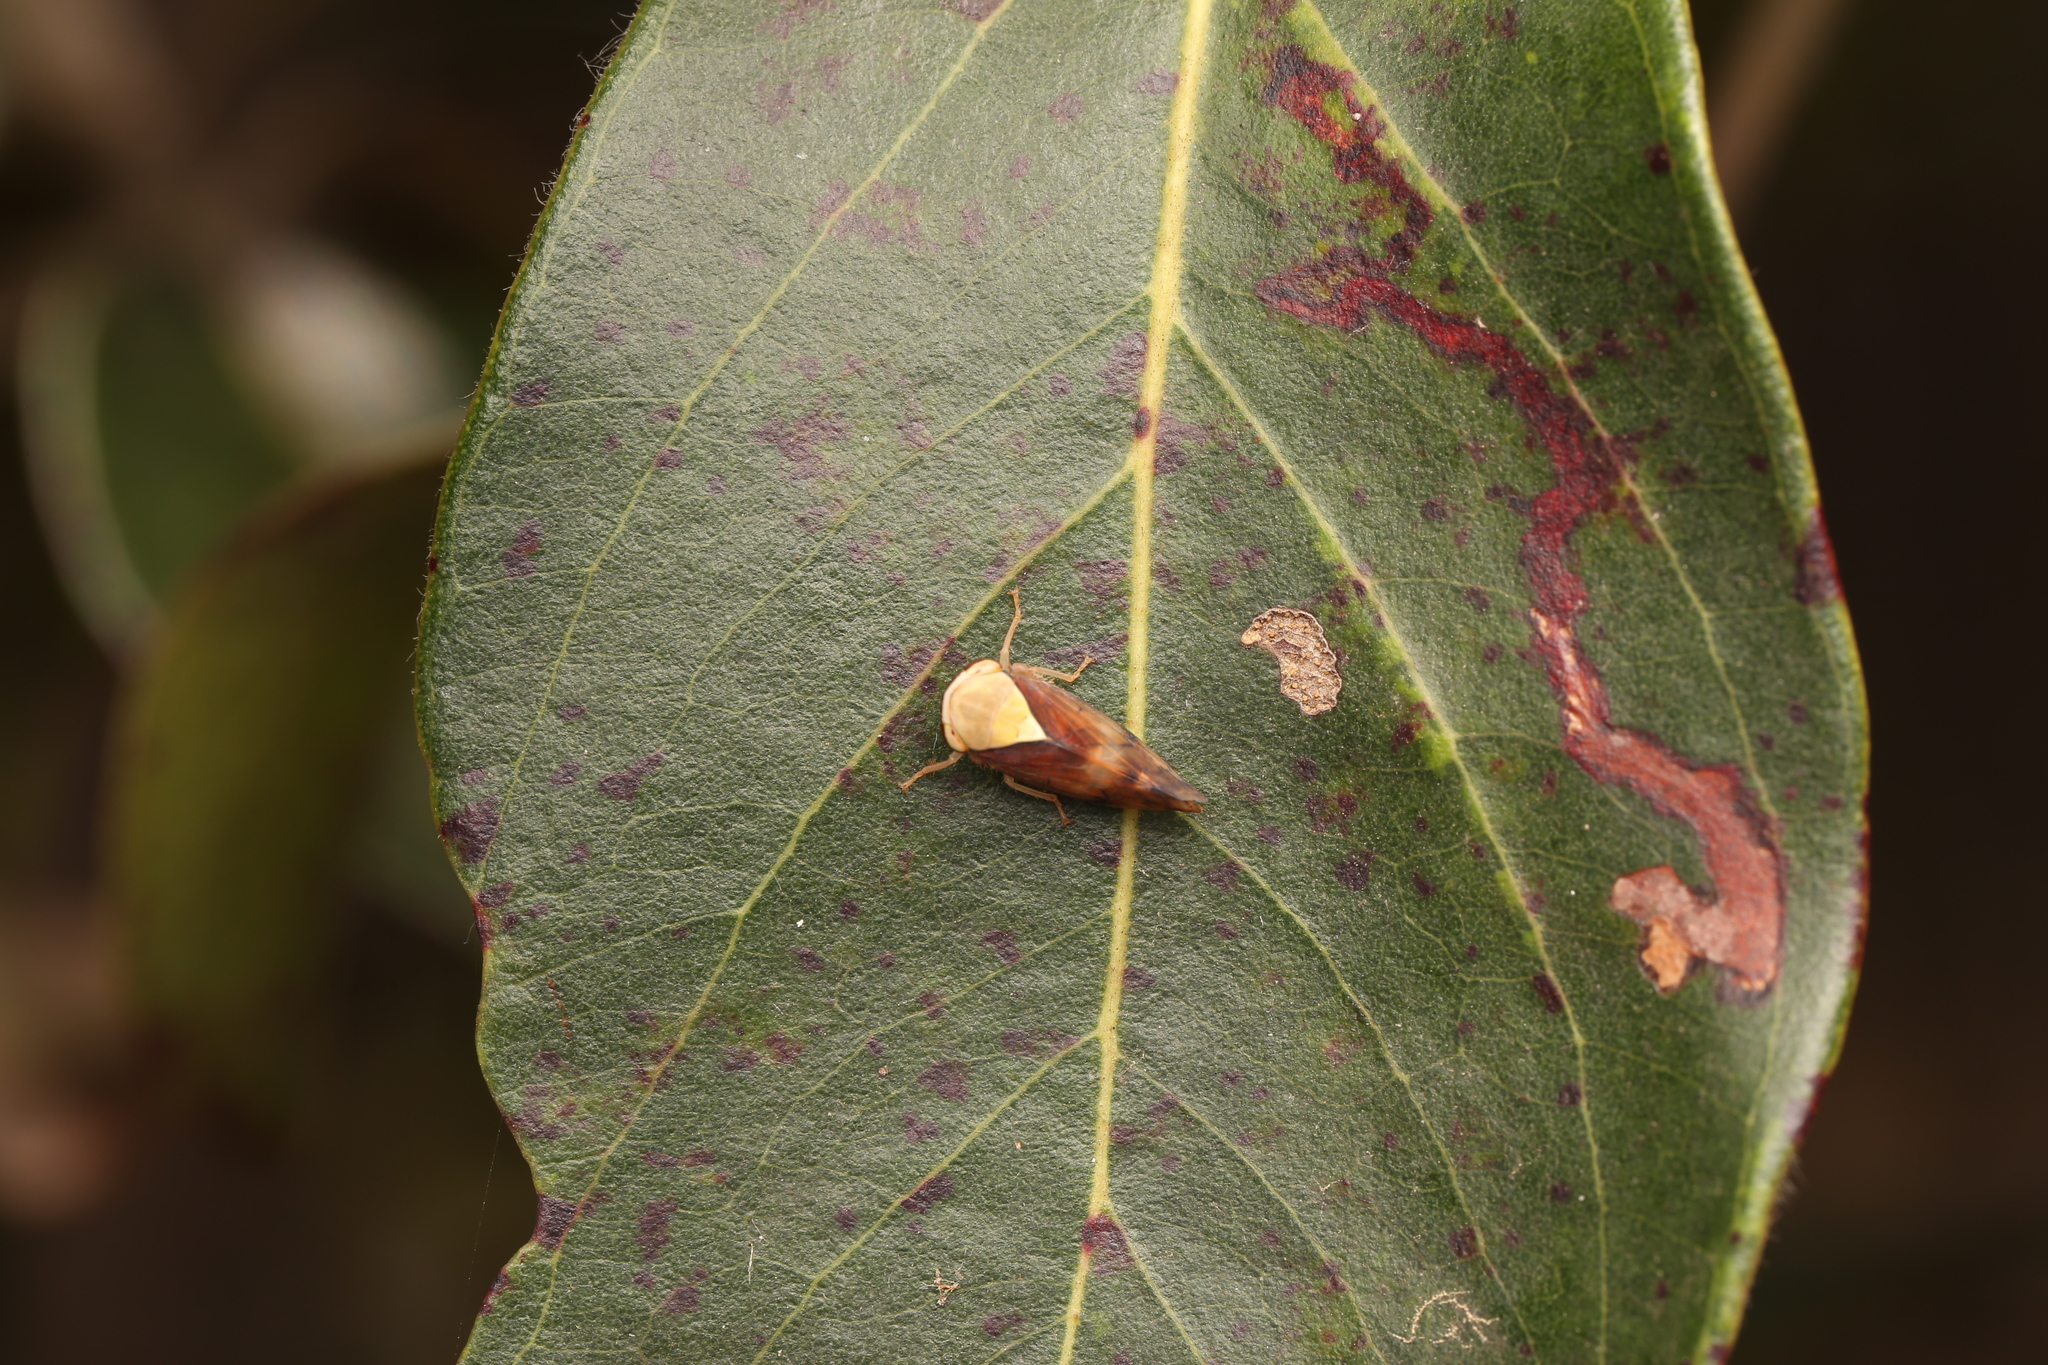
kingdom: Animalia
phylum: Arthropoda
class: Insecta
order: Hemiptera
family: Cicadellidae
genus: Brunotartessus
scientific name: Brunotartessus fulvus
